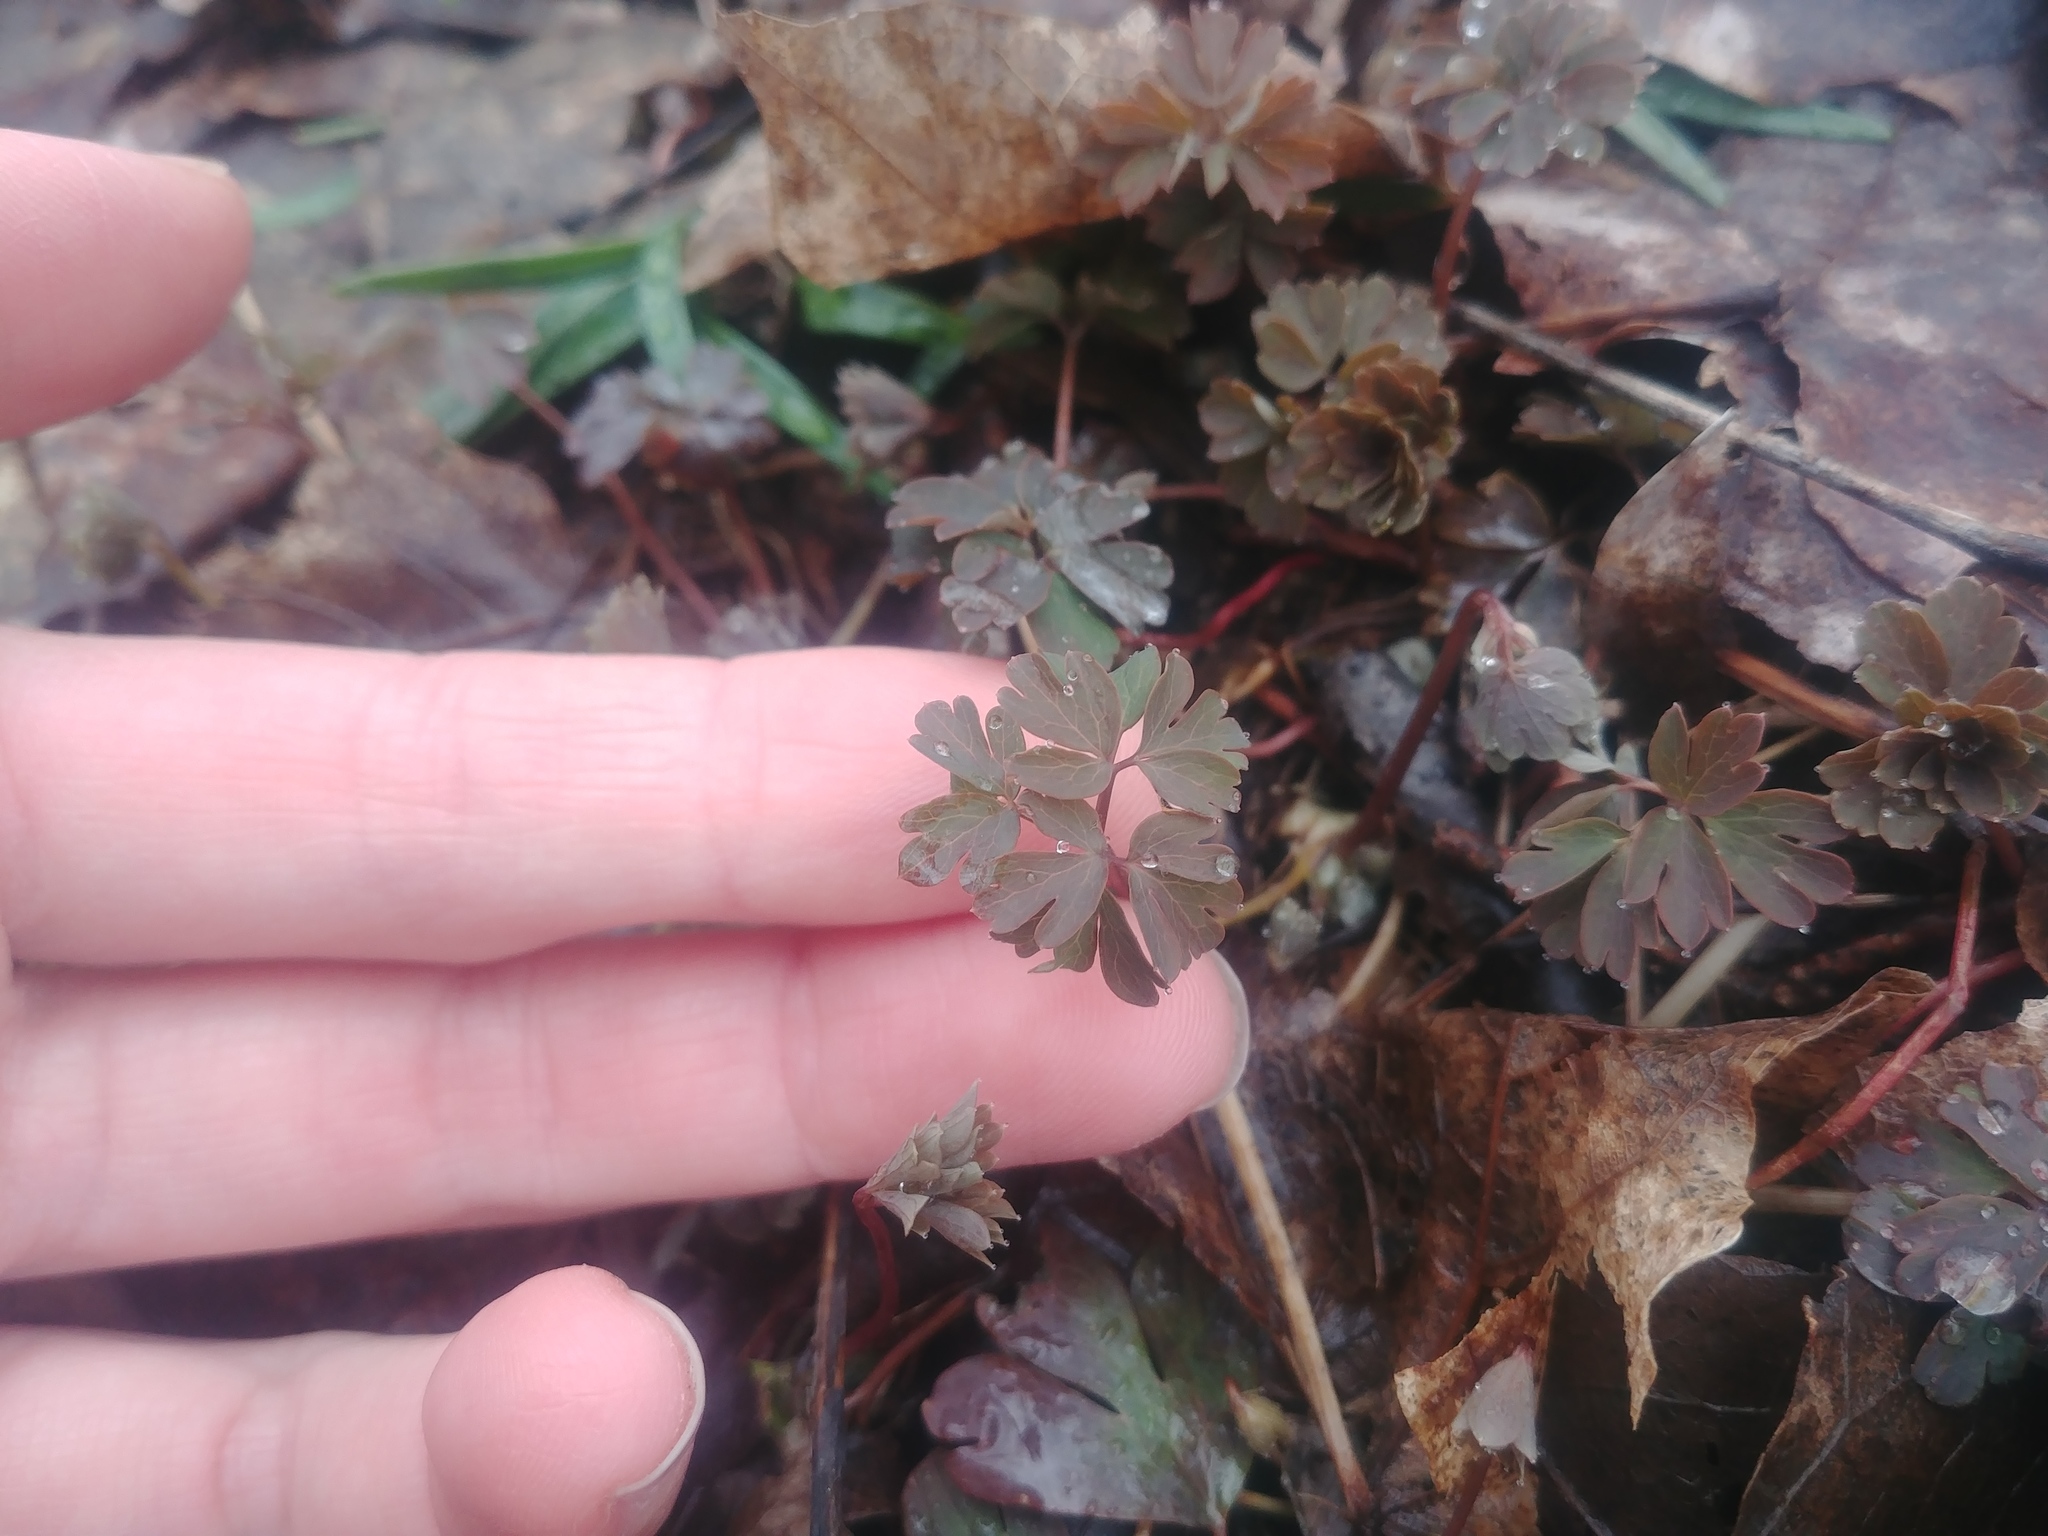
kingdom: Plantae
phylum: Tracheophyta
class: Magnoliopsida
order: Ranunculales
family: Ranunculaceae
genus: Enemion
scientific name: Enemion biternatum
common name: Eastern false rue-anemone
